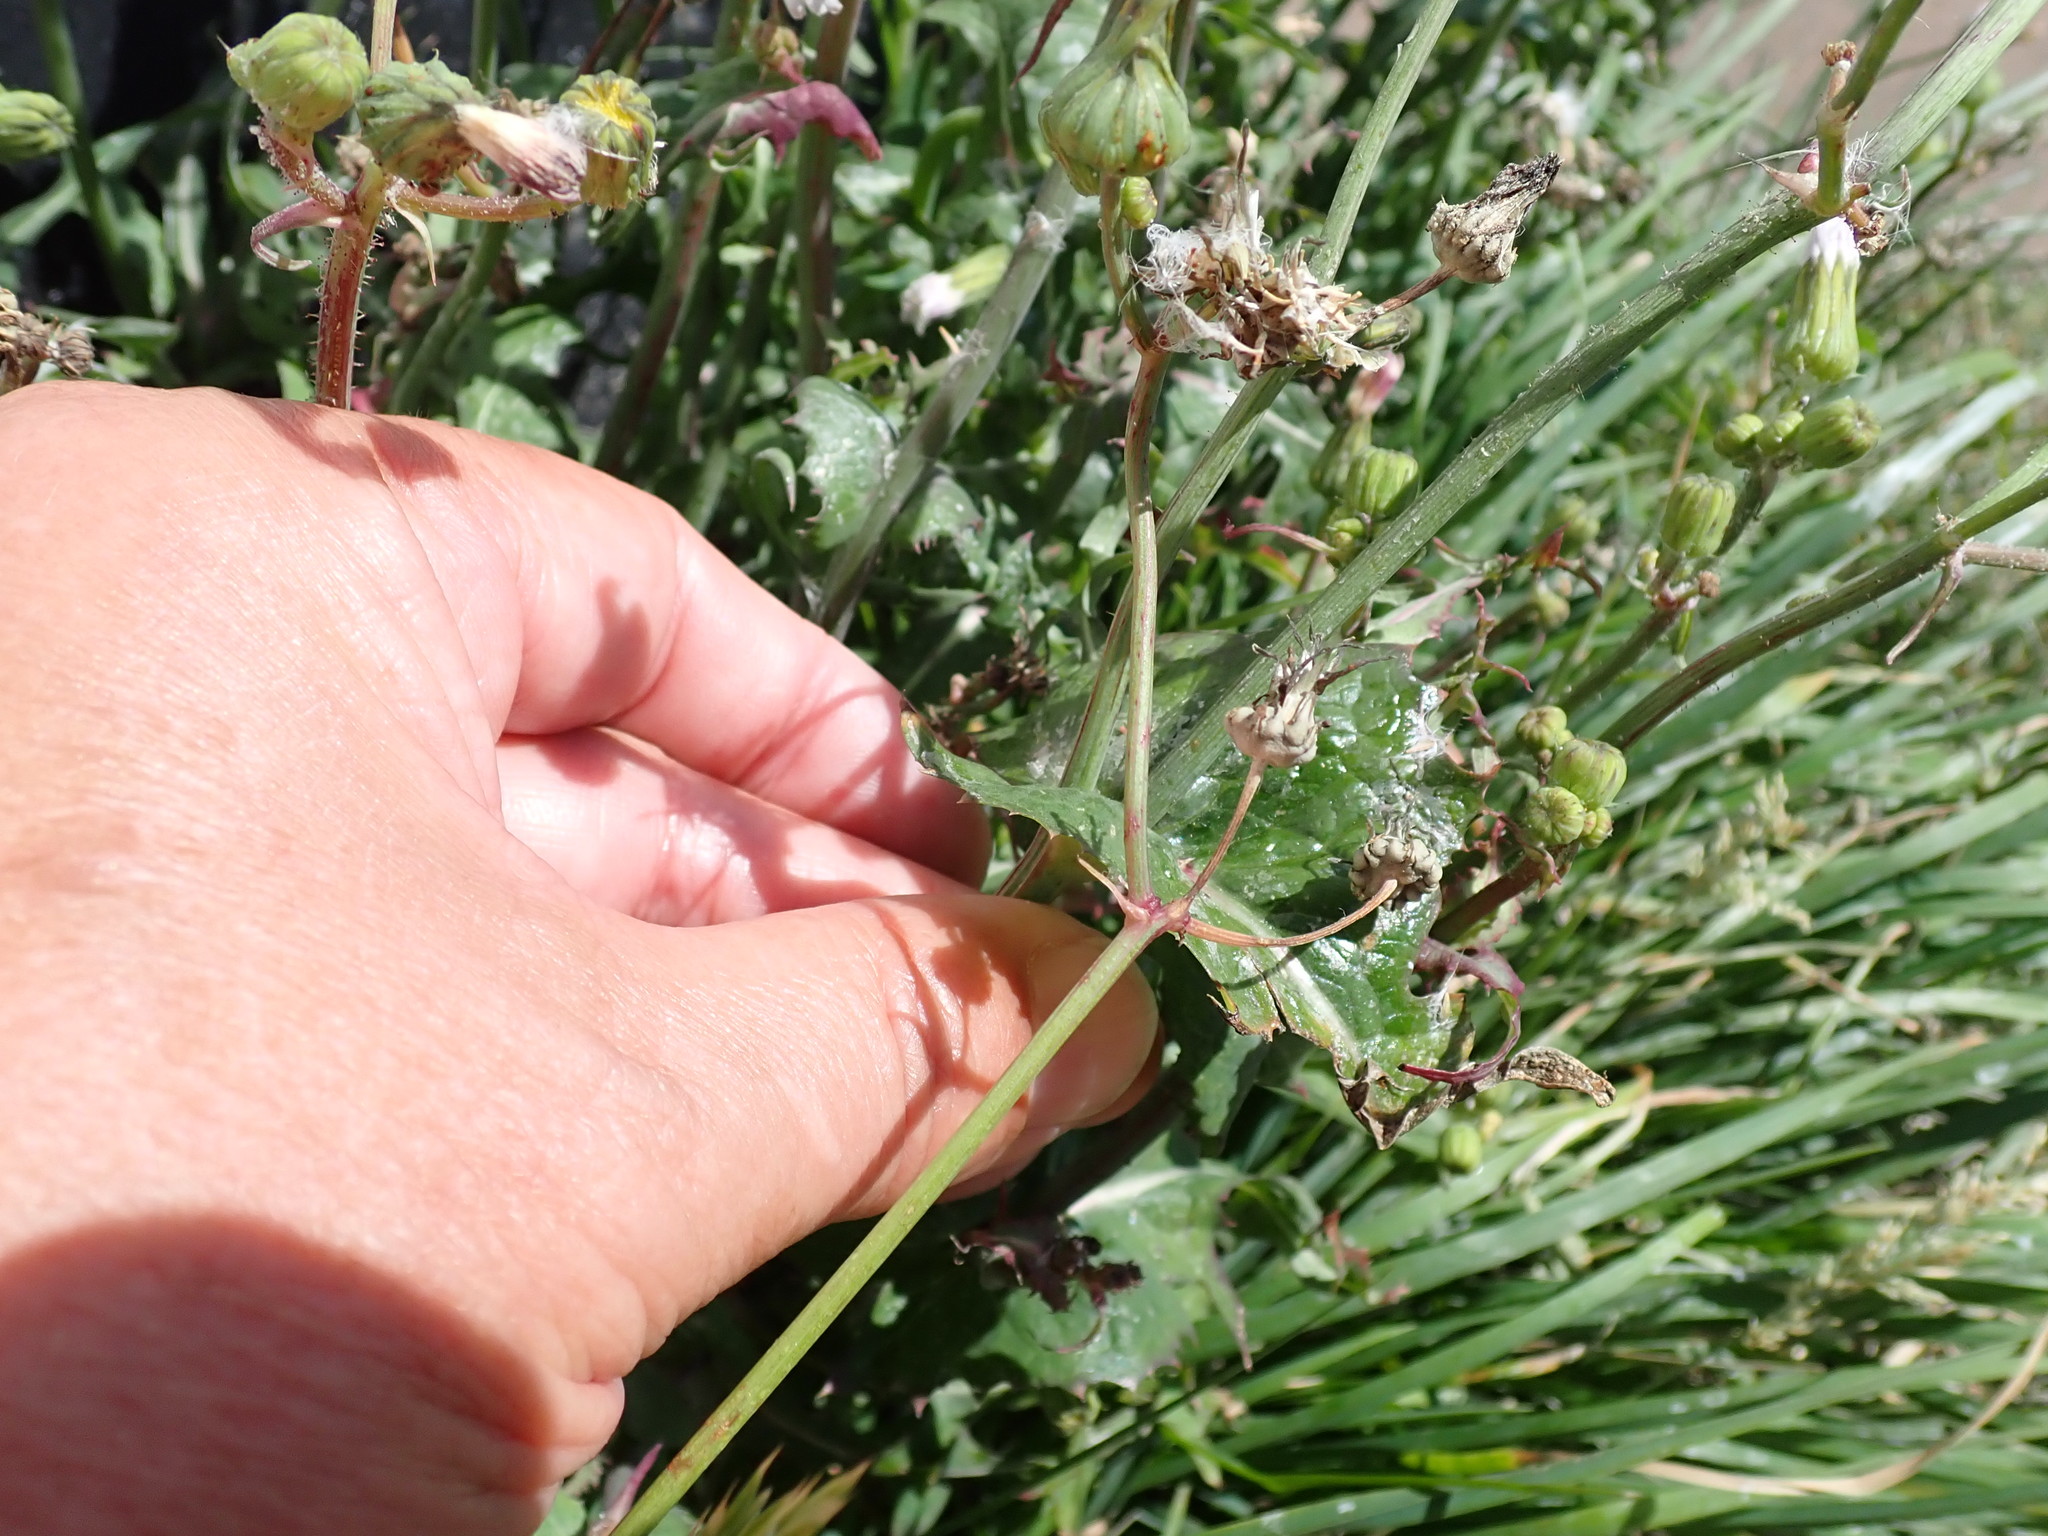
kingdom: Plantae
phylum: Tracheophyta
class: Magnoliopsida
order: Asterales
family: Asteraceae
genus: Sonchus
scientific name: Sonchus oleraceus
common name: Common sowthistle
